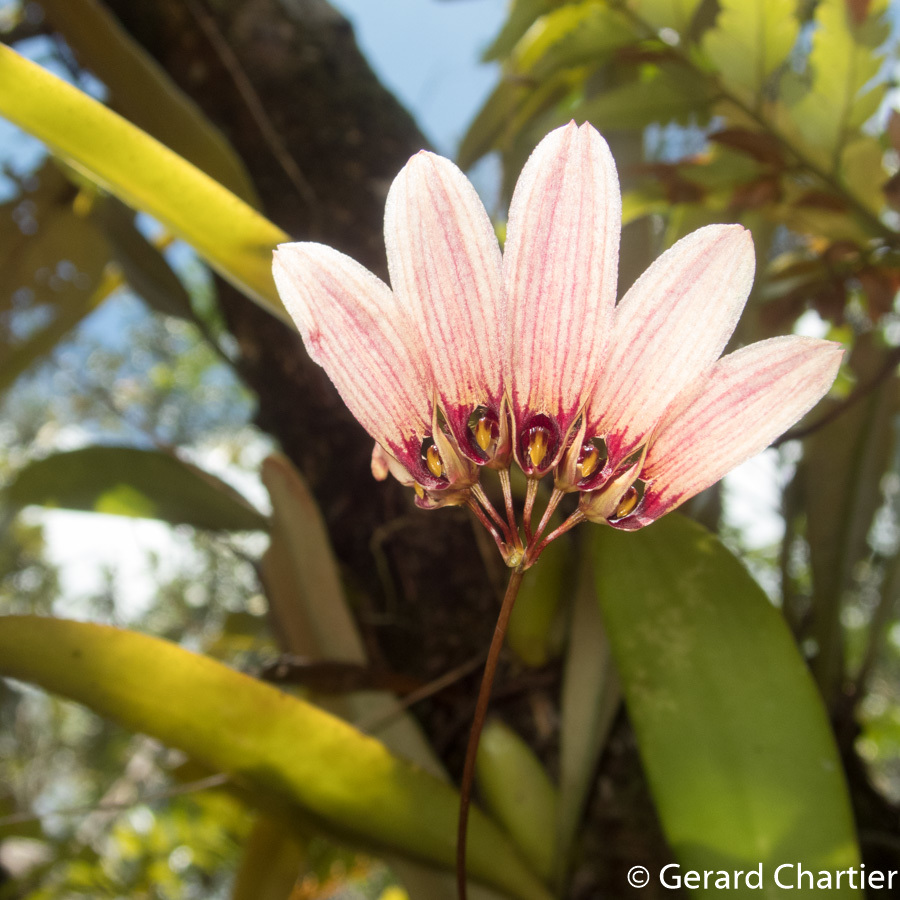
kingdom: Plantae
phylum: Tracheophyta
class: Liliopsida
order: Asparagales
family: Orchidaceae
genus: Bulbophyllum
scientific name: Bulbophyllum lepidum
